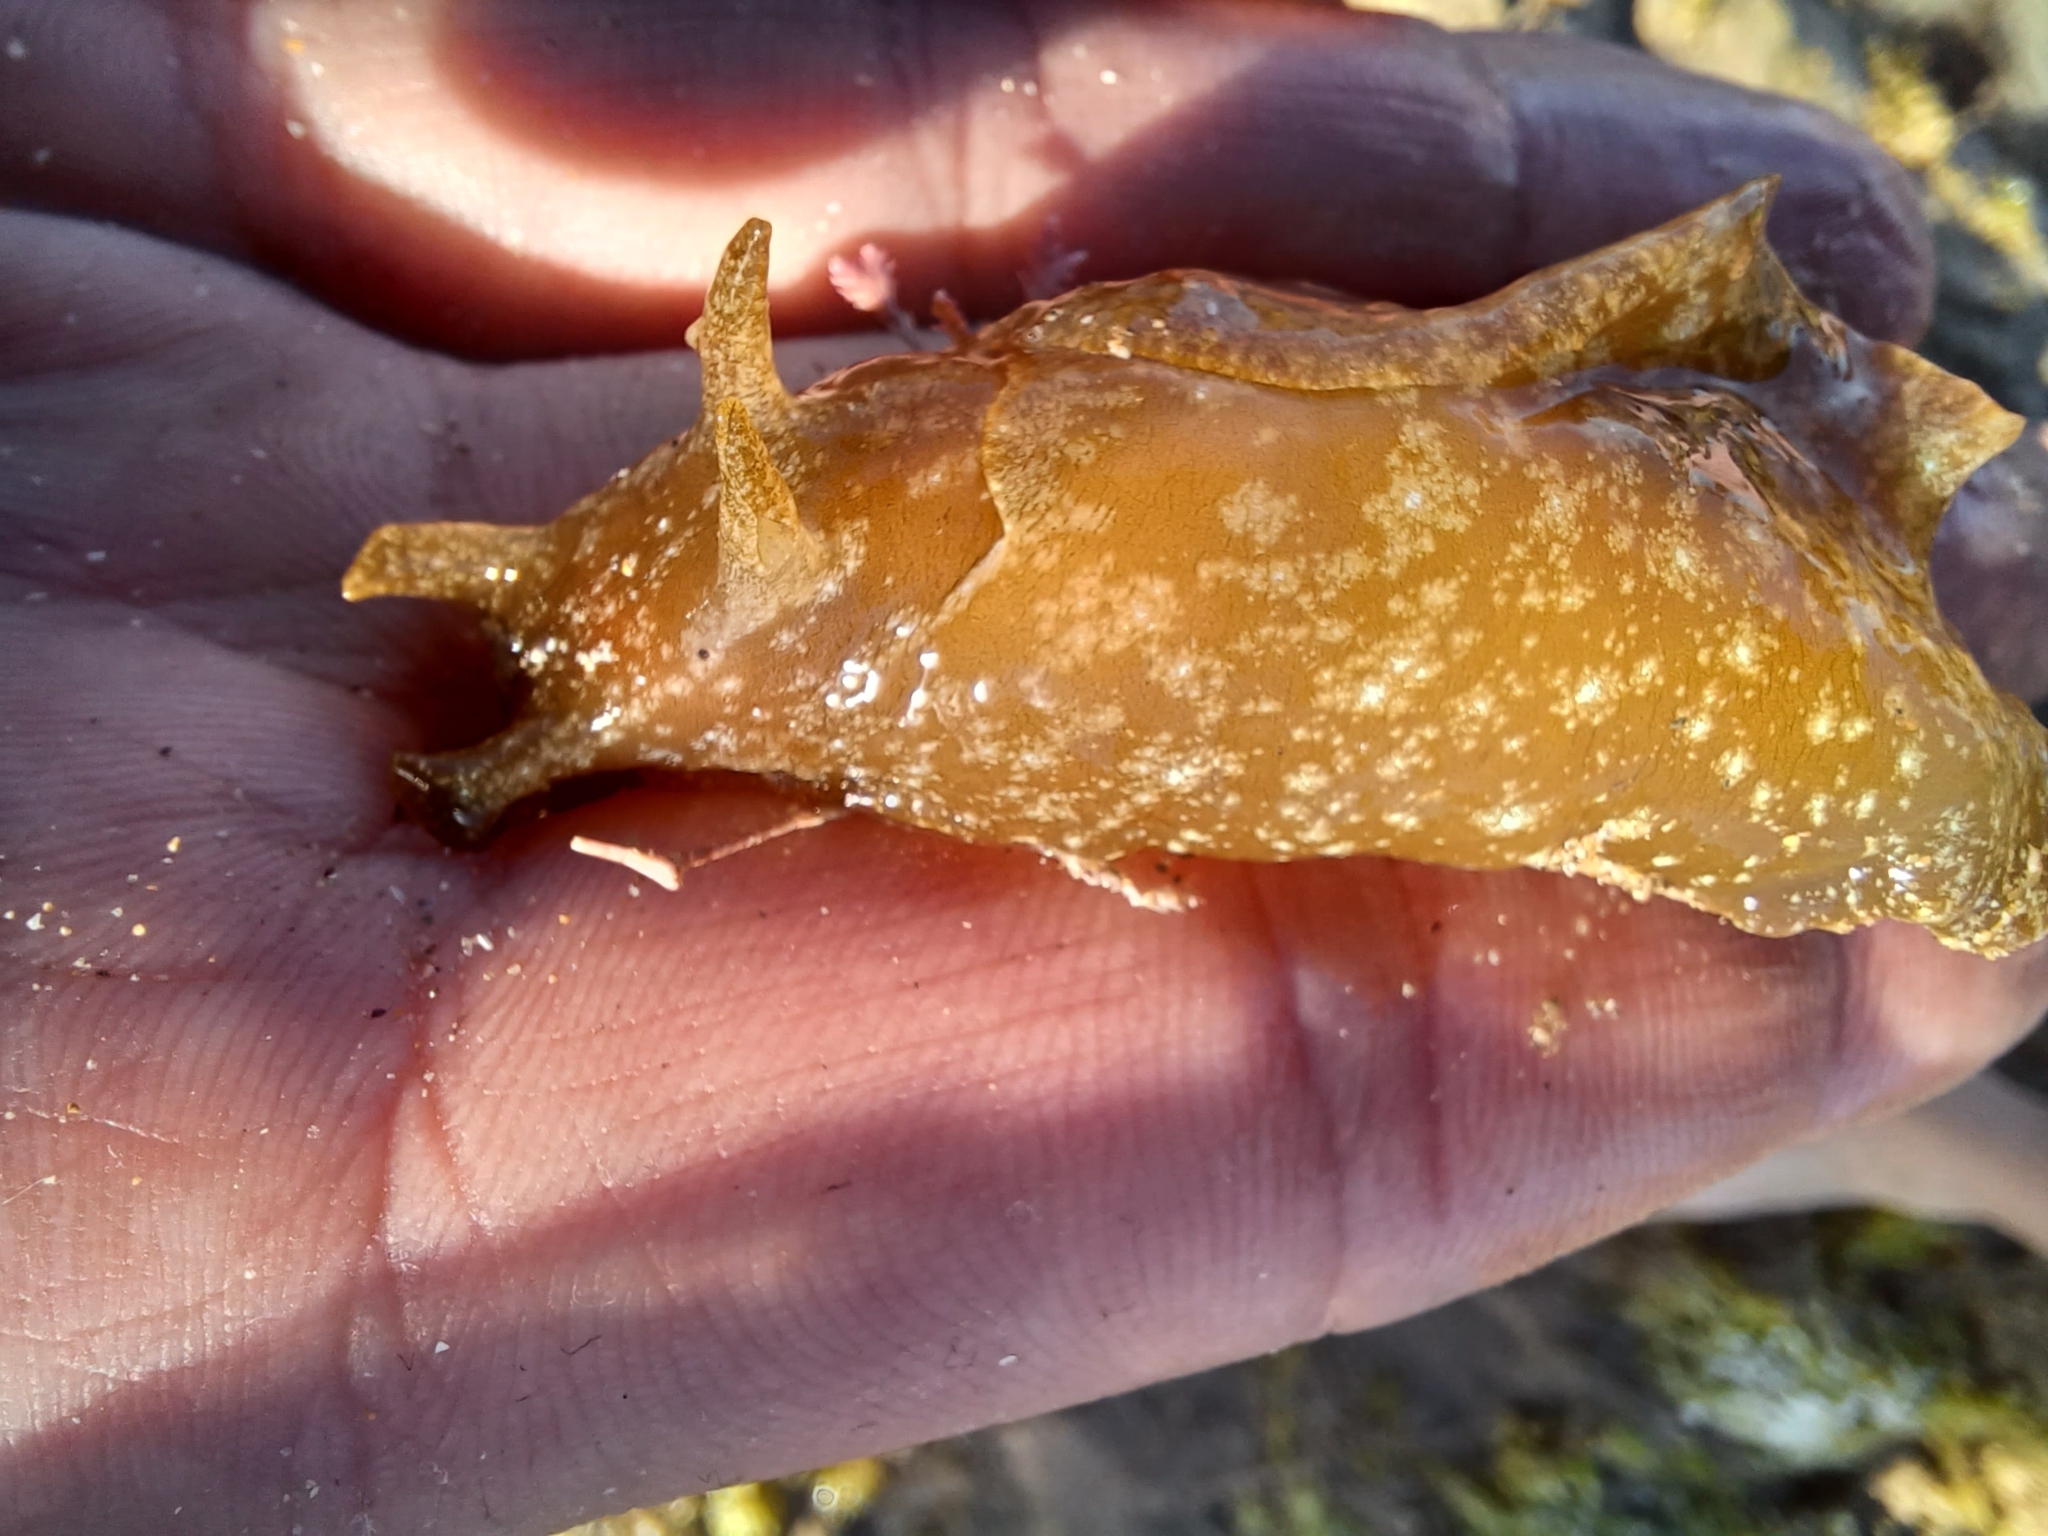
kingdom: Animalia
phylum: Mollusca
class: Gastropoda
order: Aplysiida
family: Aplysiidae
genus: Aplysia
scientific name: Aplysia juliana
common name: Walking sea hare
